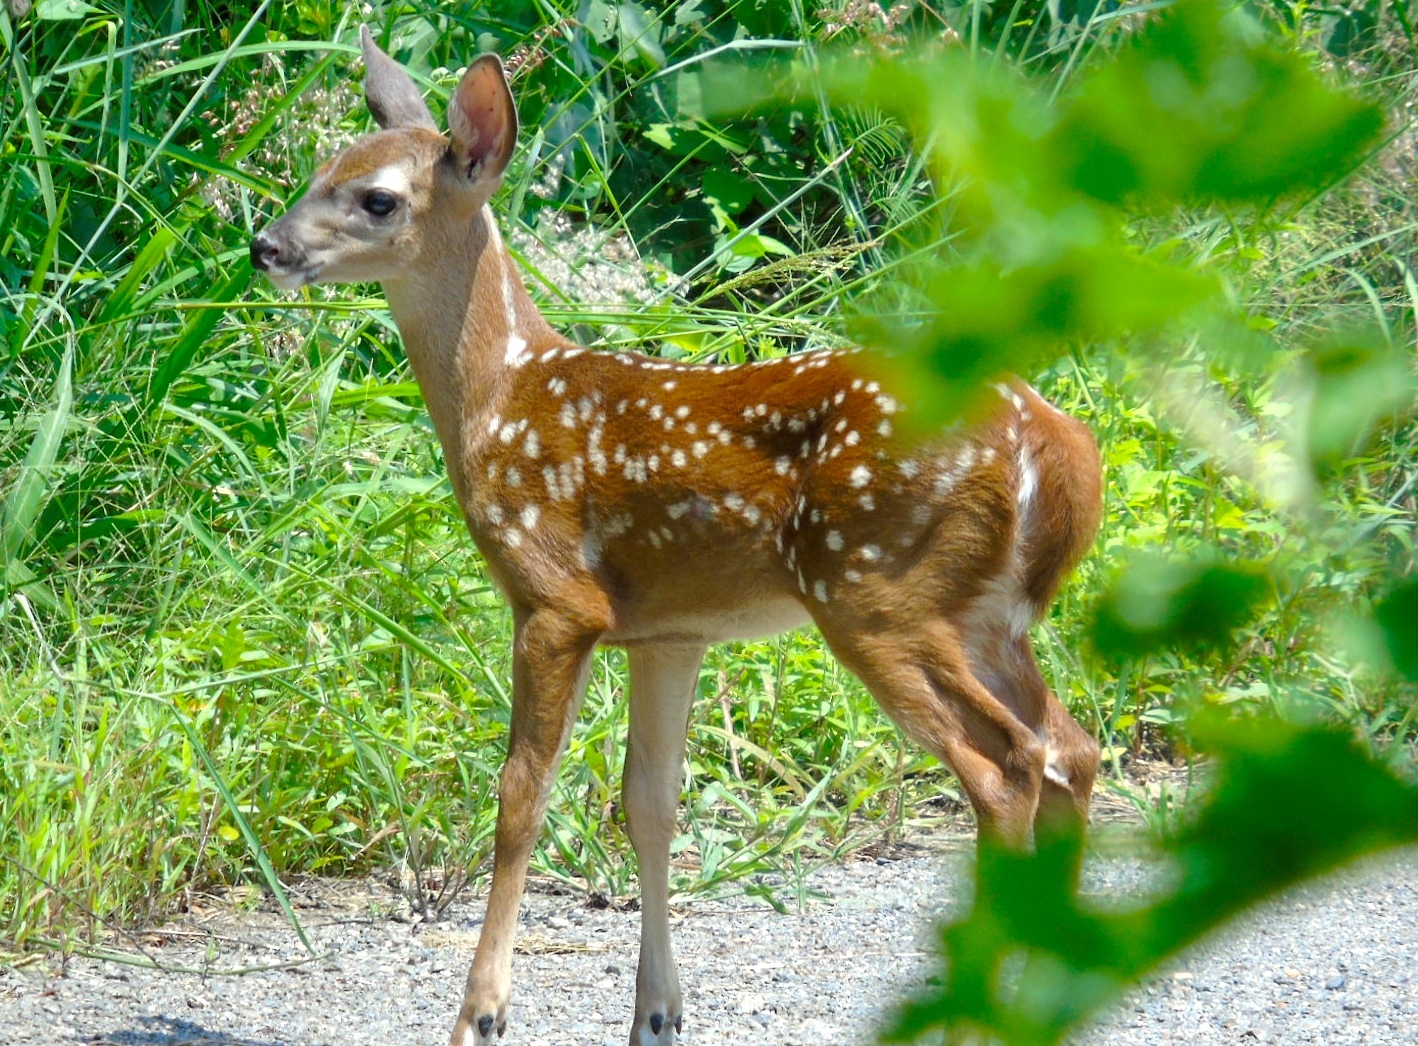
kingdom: Animalia
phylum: Chordata
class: Mammalia
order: Artiodactyla
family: Cervidae
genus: Odocoileus
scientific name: Odocoileus virginianus
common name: White-tailed deer
